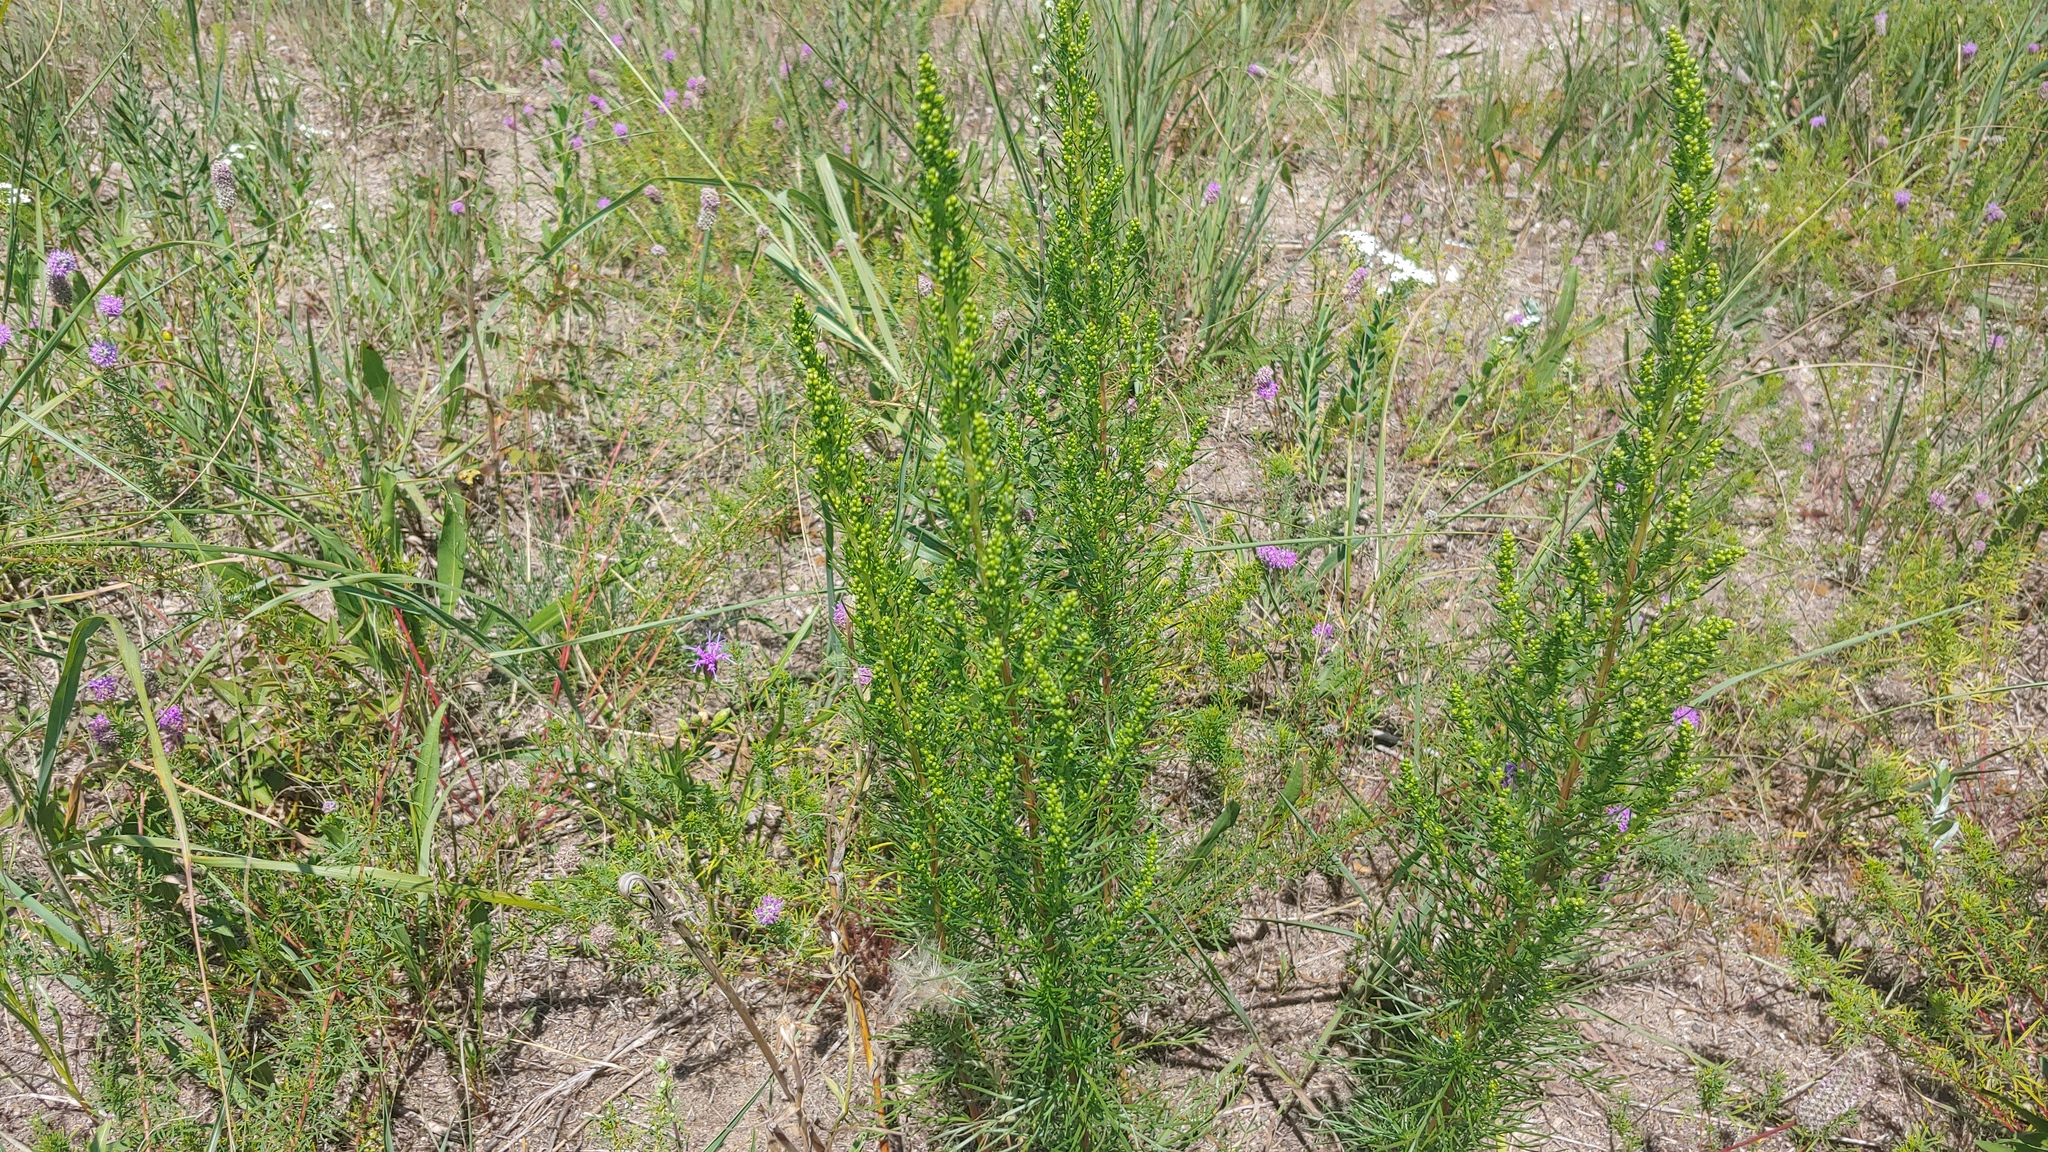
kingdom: Plantae
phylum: Tracheophyta
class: Magnoliopsida
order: Asterales
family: Asteraceae
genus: Artemisia
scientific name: Artemisia campestris
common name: Field wormwood
